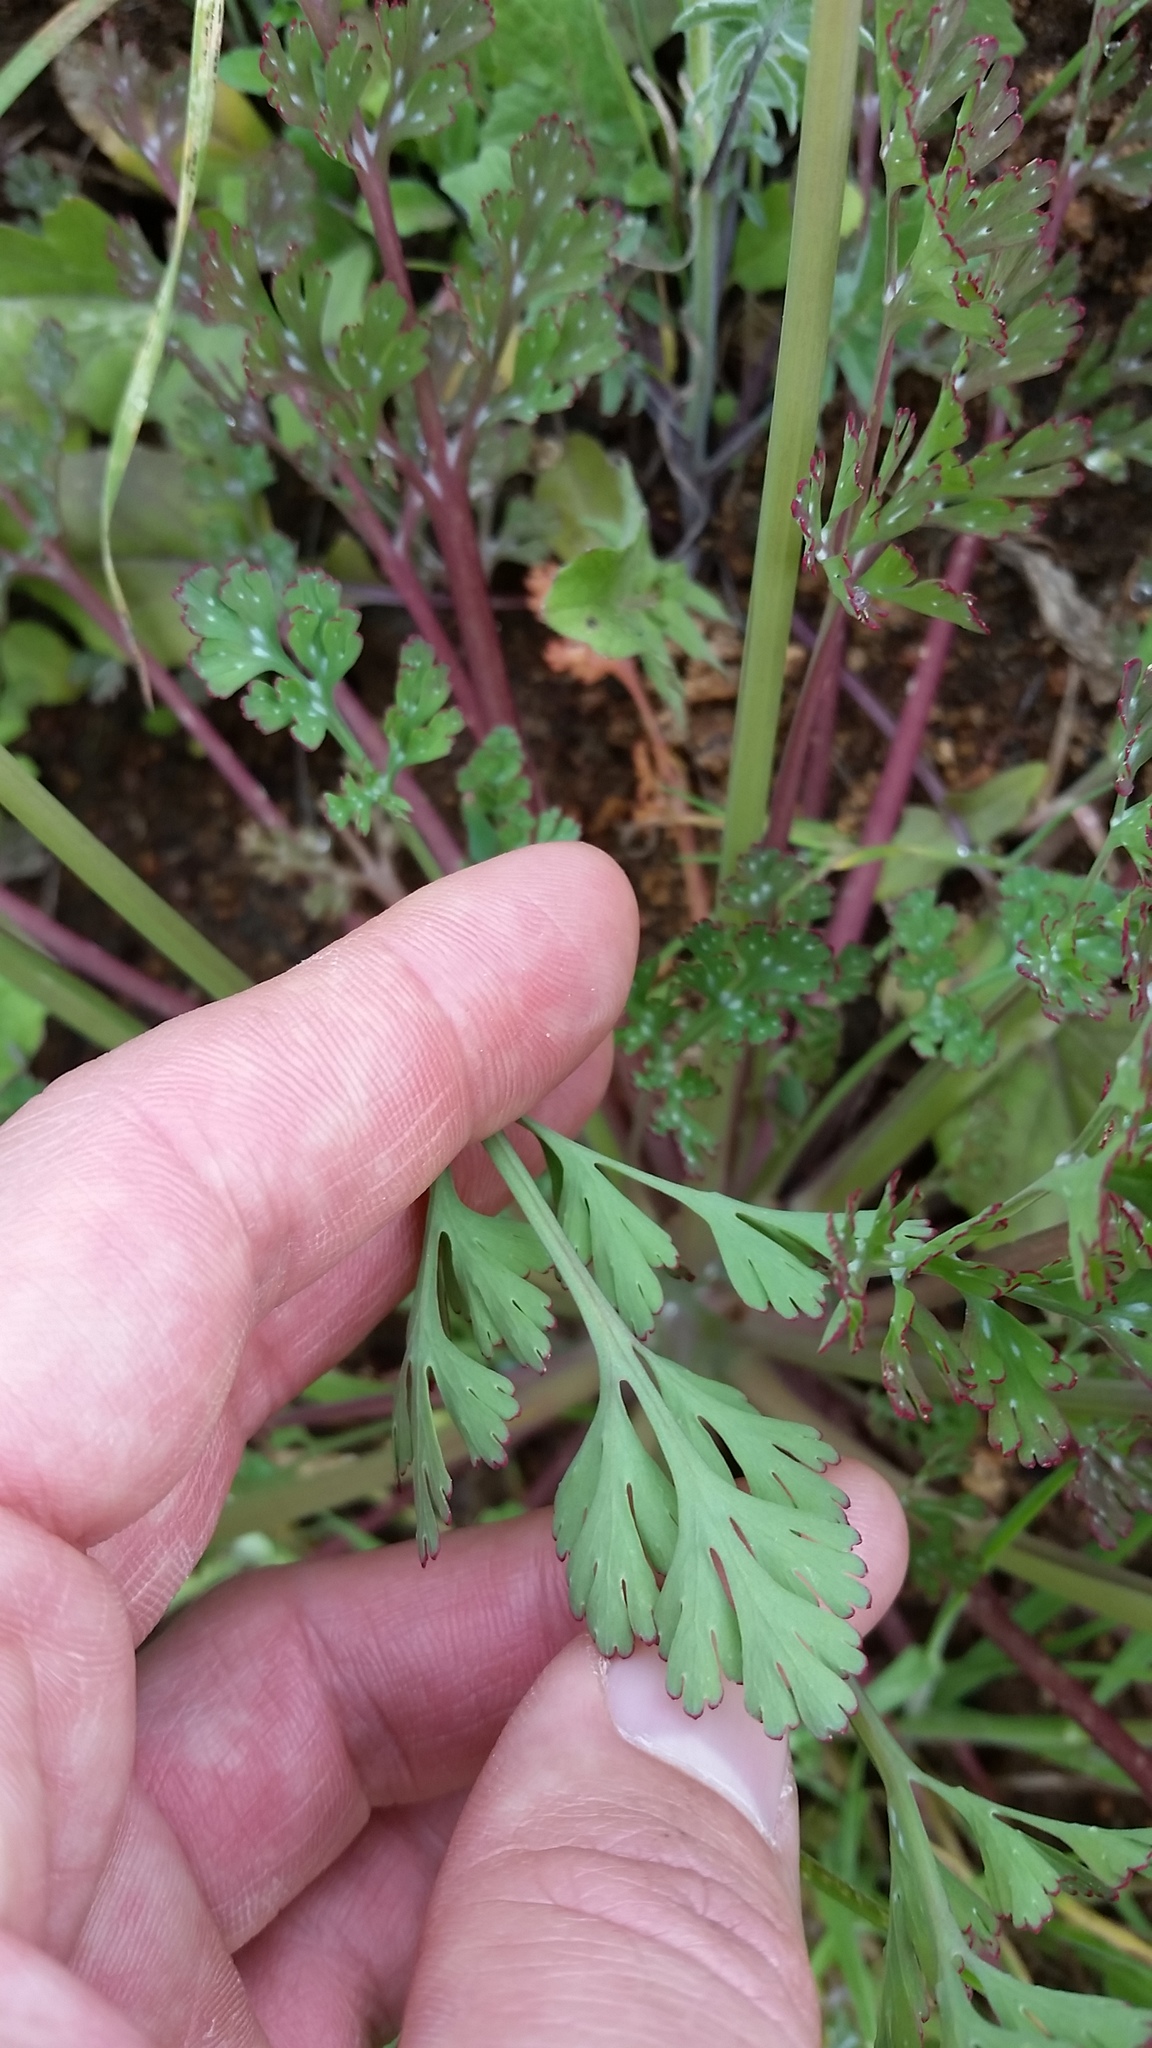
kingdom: Plantae
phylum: Tracheophyta
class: Magnoliopsida
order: Ranunculales
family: Papaveraceae
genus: Eschscholzia
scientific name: Eschscholzia californica
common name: California poppy
